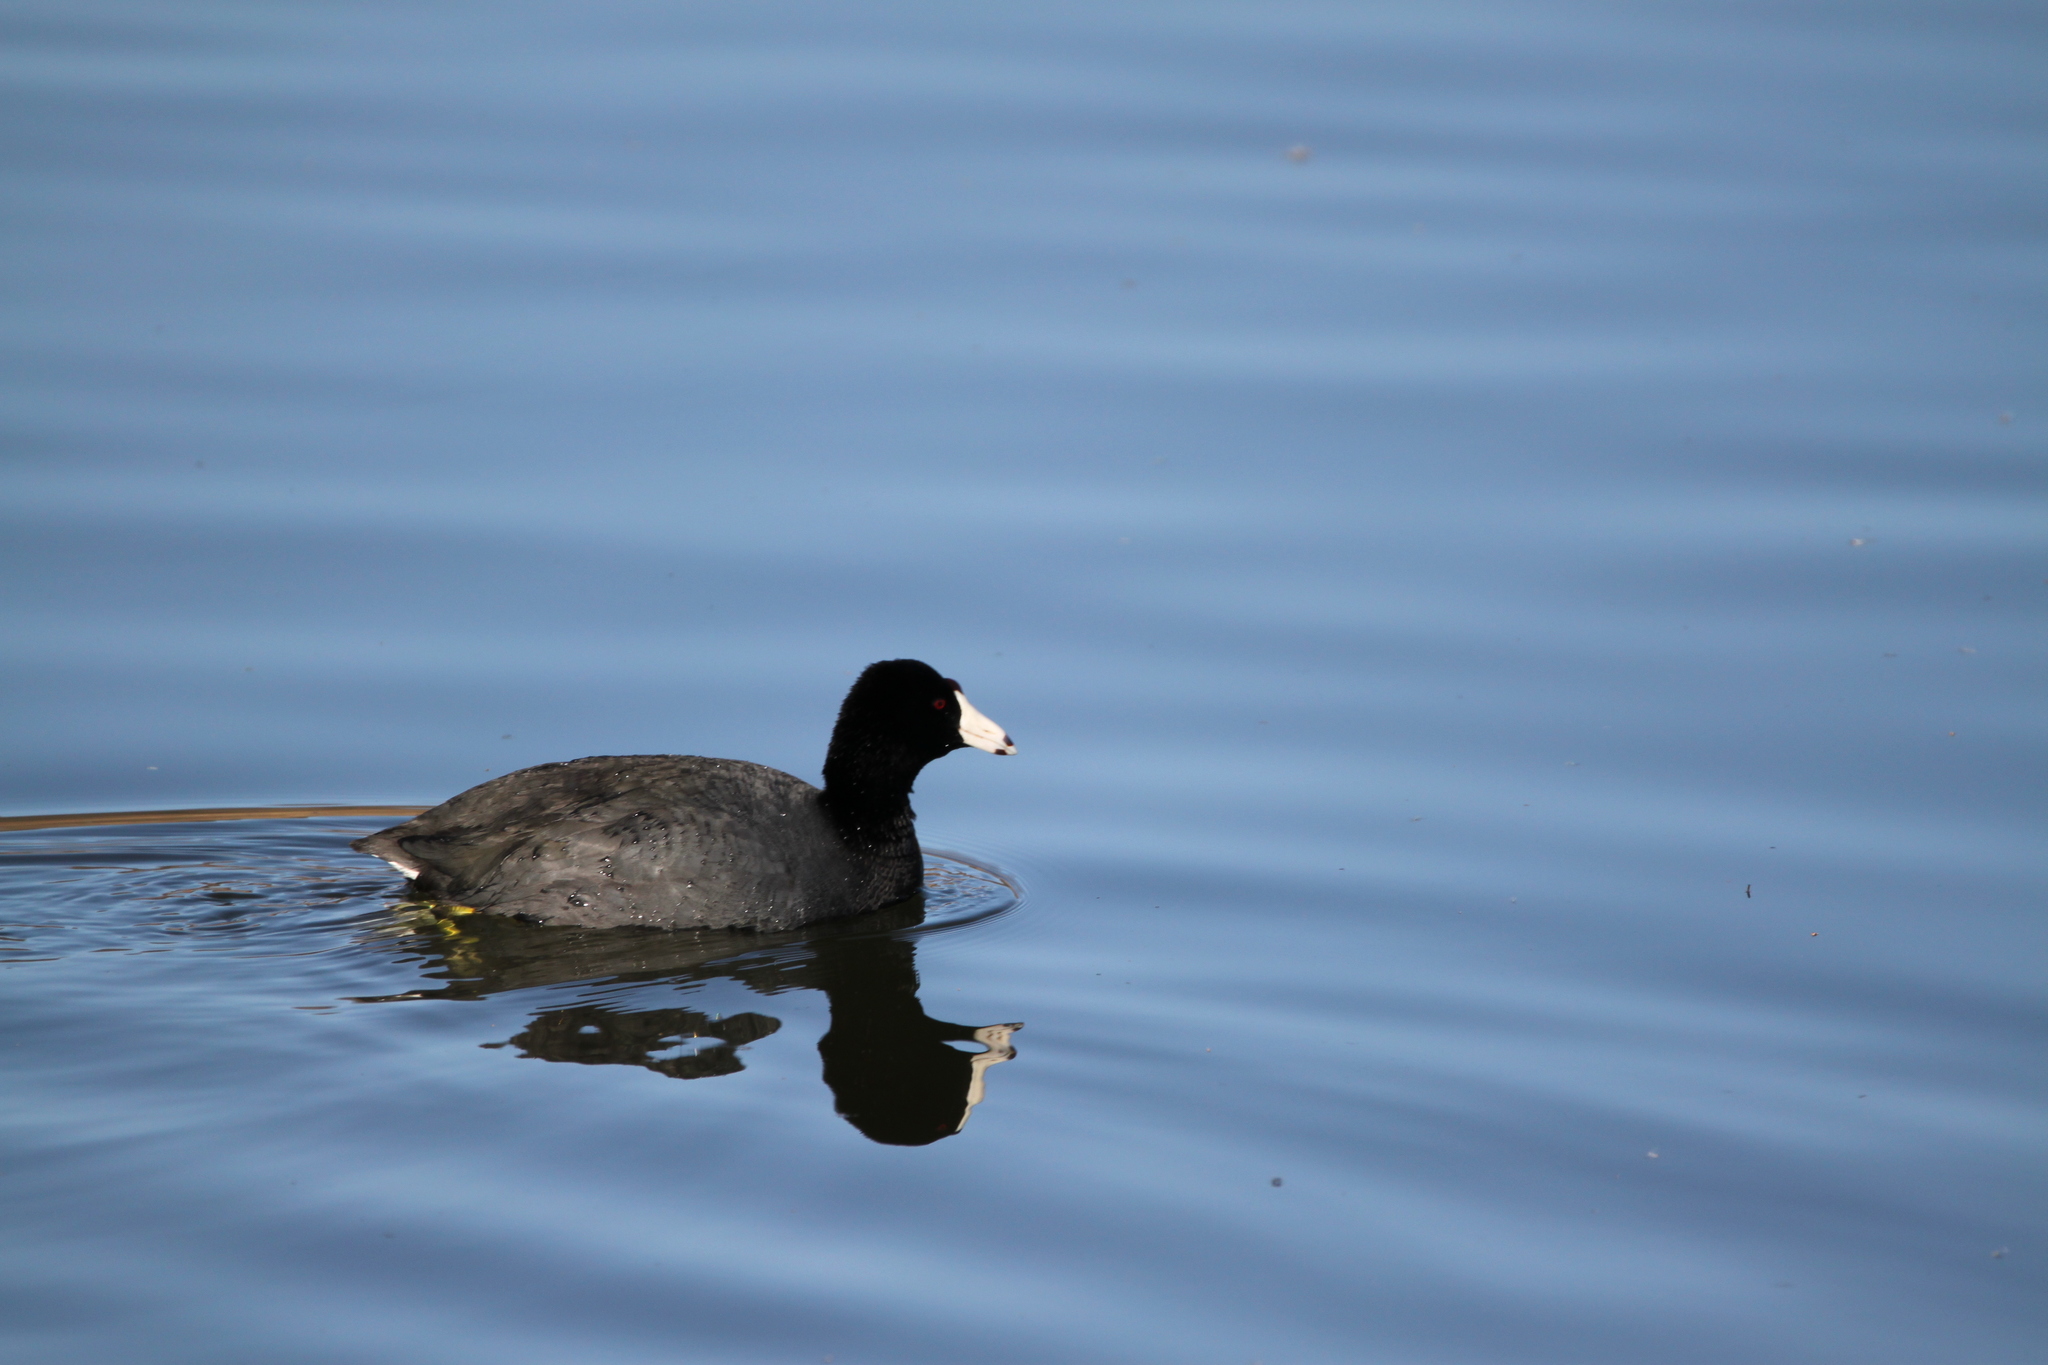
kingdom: Animalia
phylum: Chordata
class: Aves
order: Gruiformes
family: Rallidae
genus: Fulica
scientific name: Fulica americana
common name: American coot
